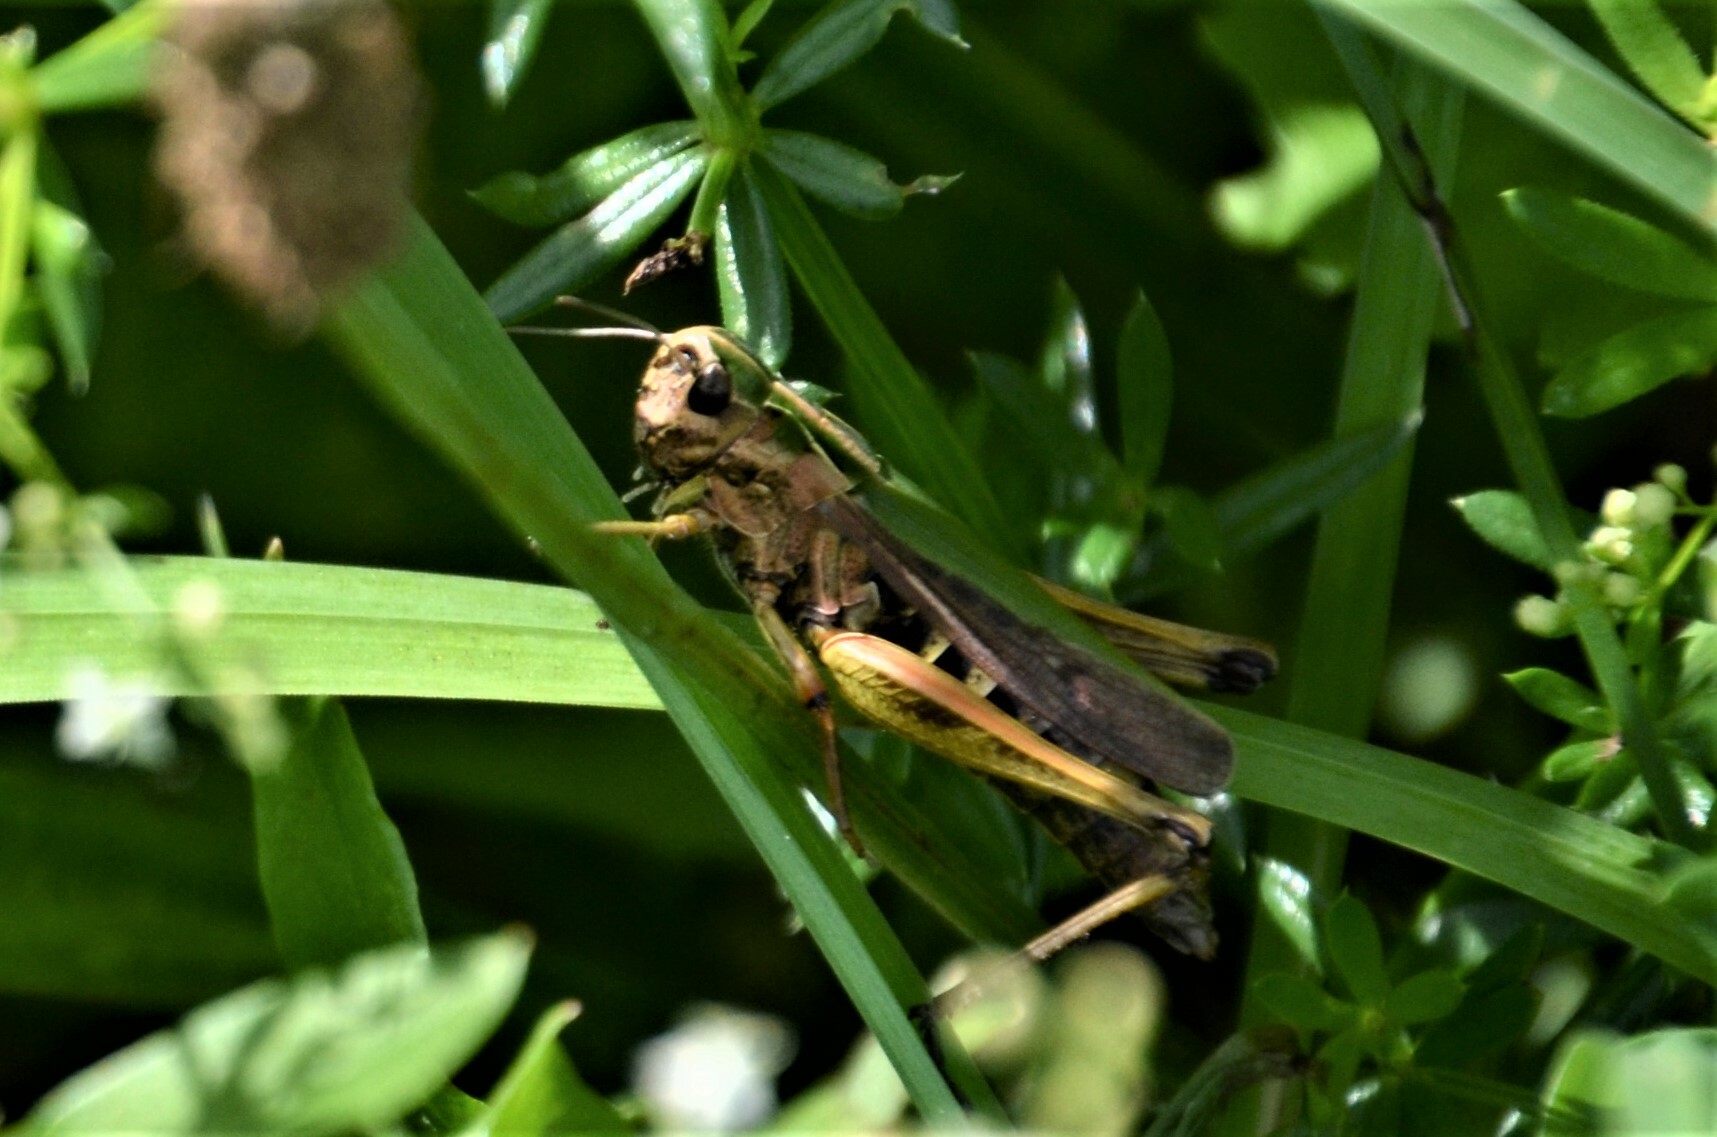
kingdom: Animalia
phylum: Arthropoda
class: Insecta
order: Orthoptera
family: Acrididae
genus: Omocestus
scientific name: Omocestus viridulus
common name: Common green grasshopper
